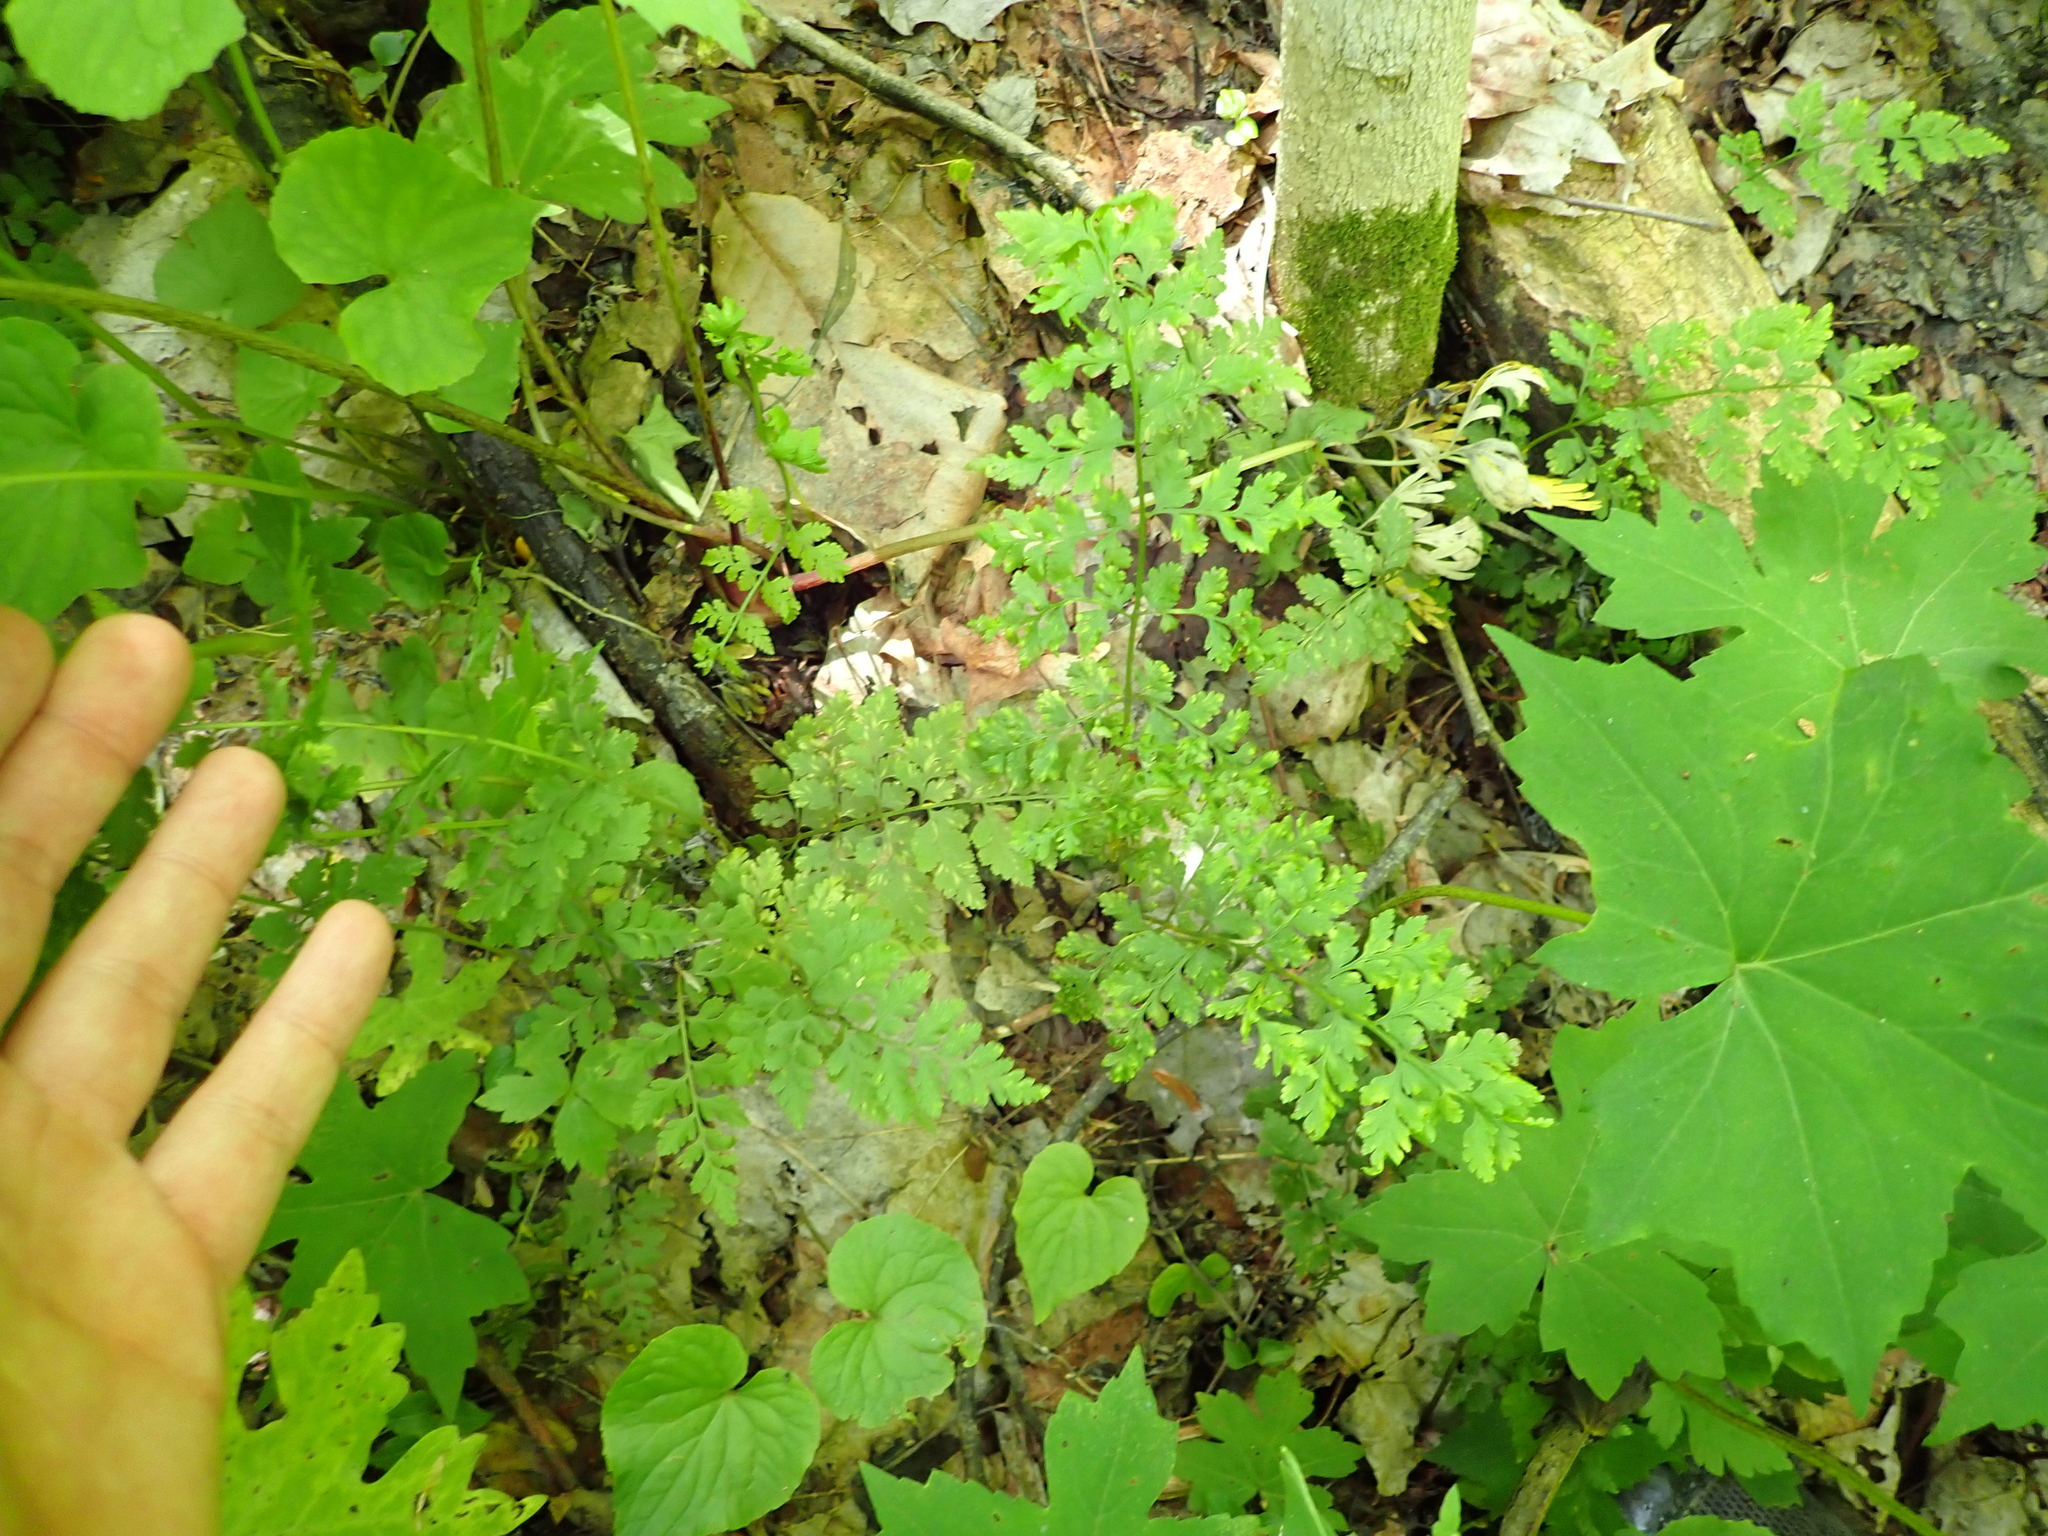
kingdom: Plantae
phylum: Tracheophyta
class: Polypodiopsida
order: Polypodiales
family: Cystopteridaceae
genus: Cystopteris
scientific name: Cystopteris protrusa
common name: Lowland brittle fern
